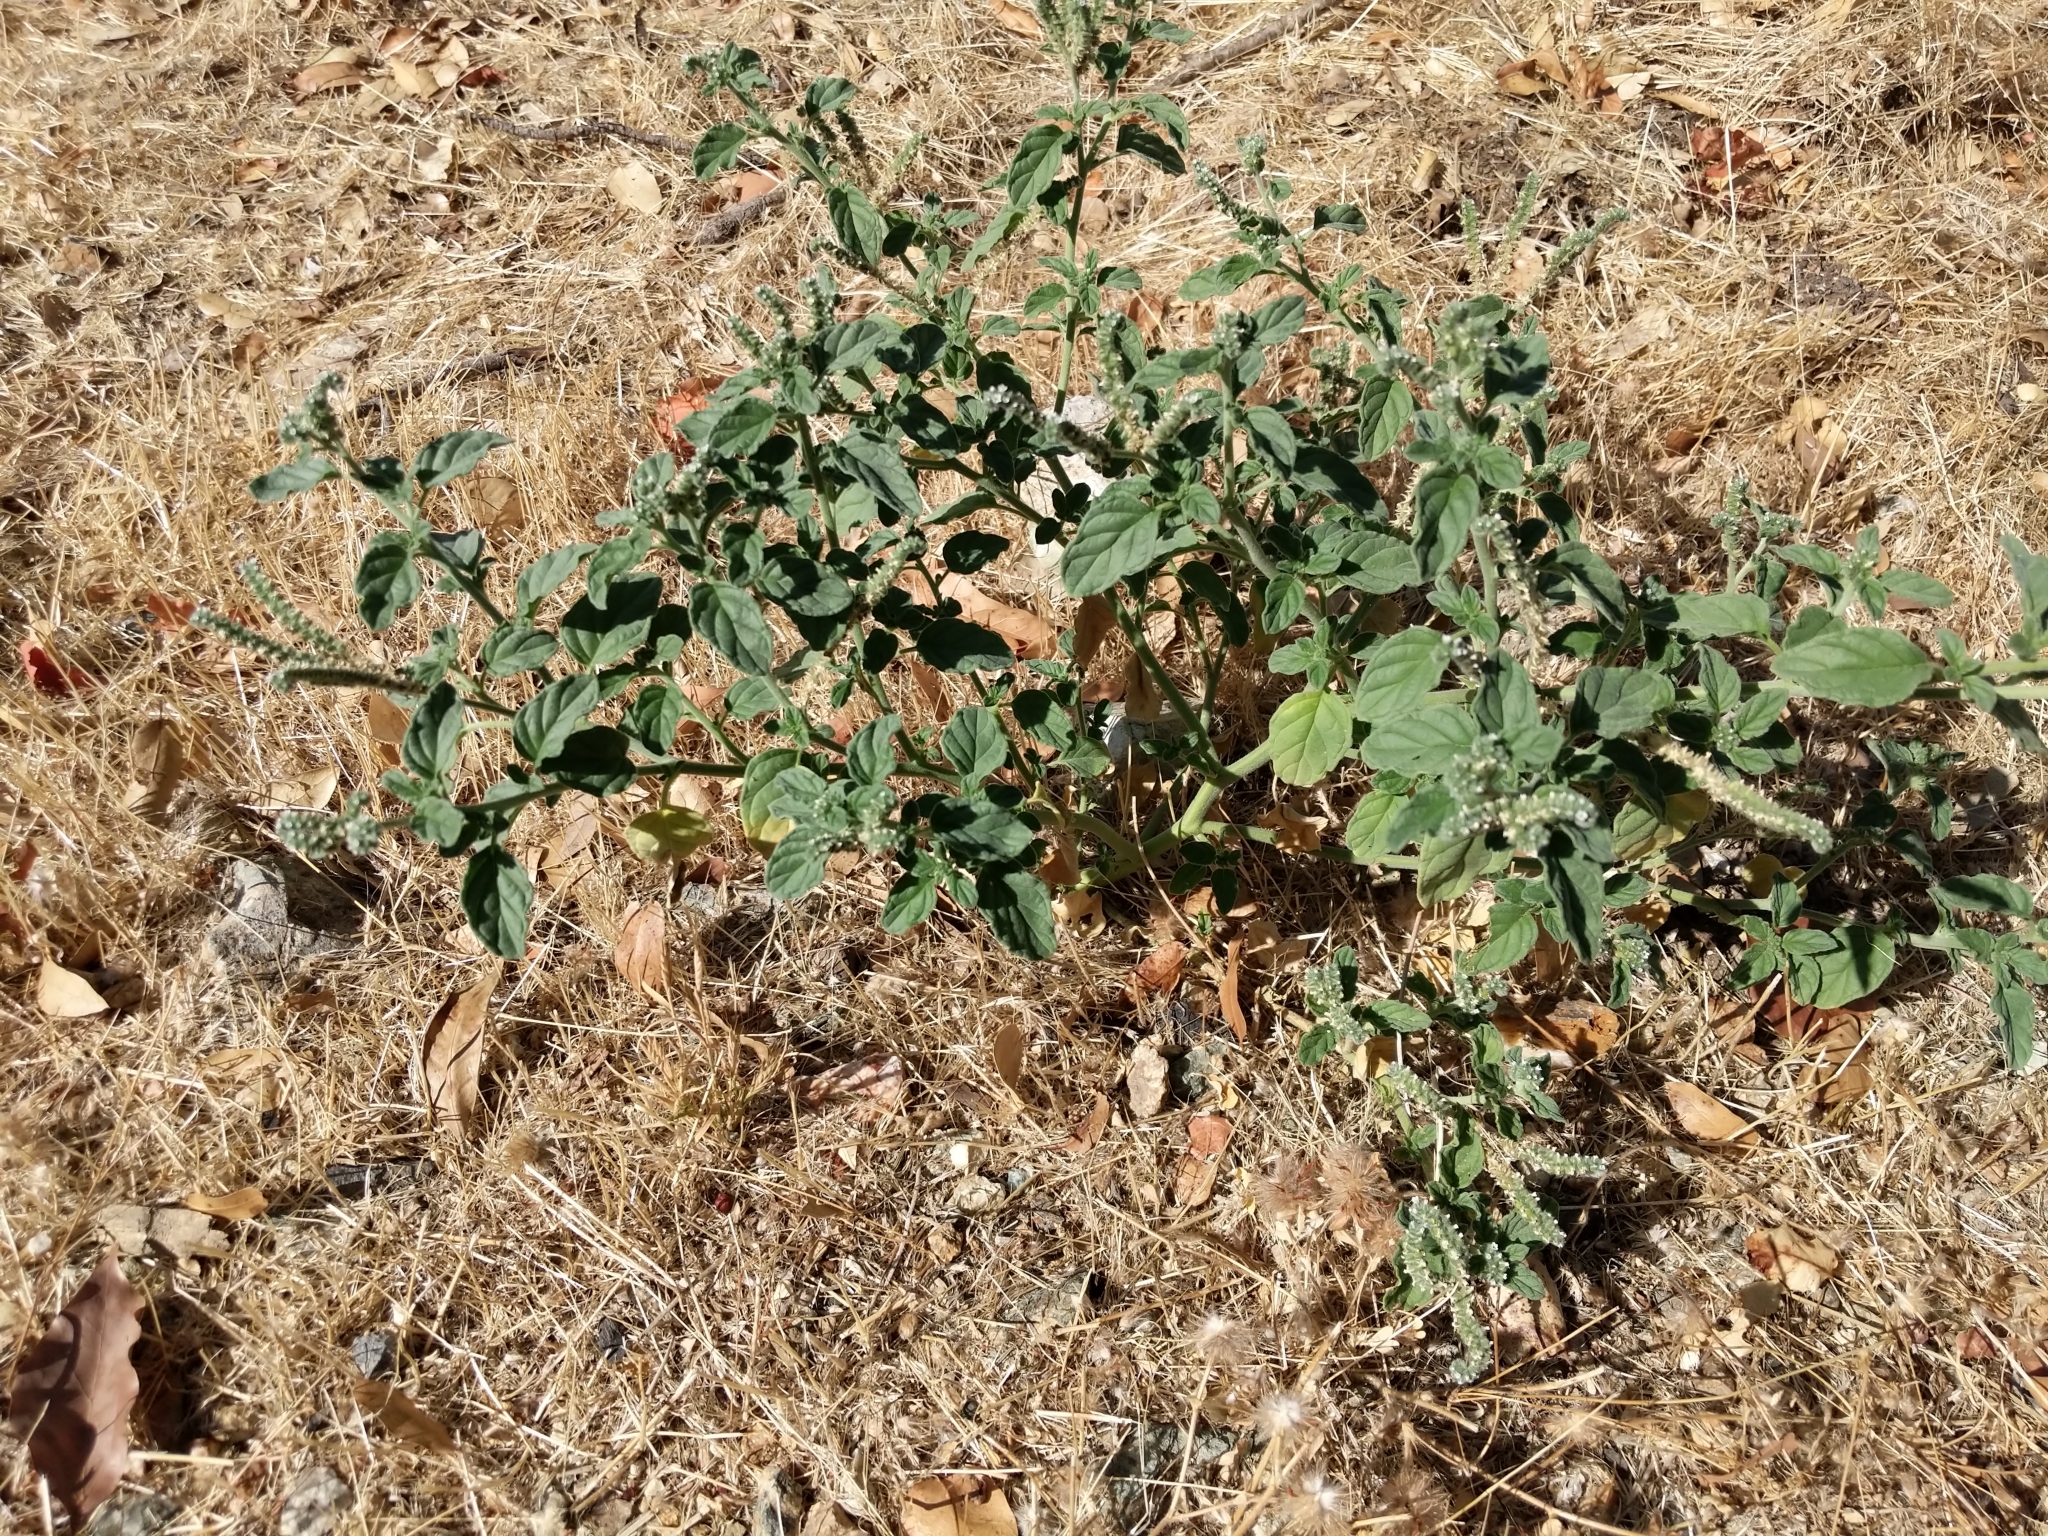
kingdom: Plantae
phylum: Tracheophyta
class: Magnoliopsida
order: Boraginales
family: Heliotropiaceae
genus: Heliotropium
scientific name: Heliotropium europaeum
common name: European heliotrope
